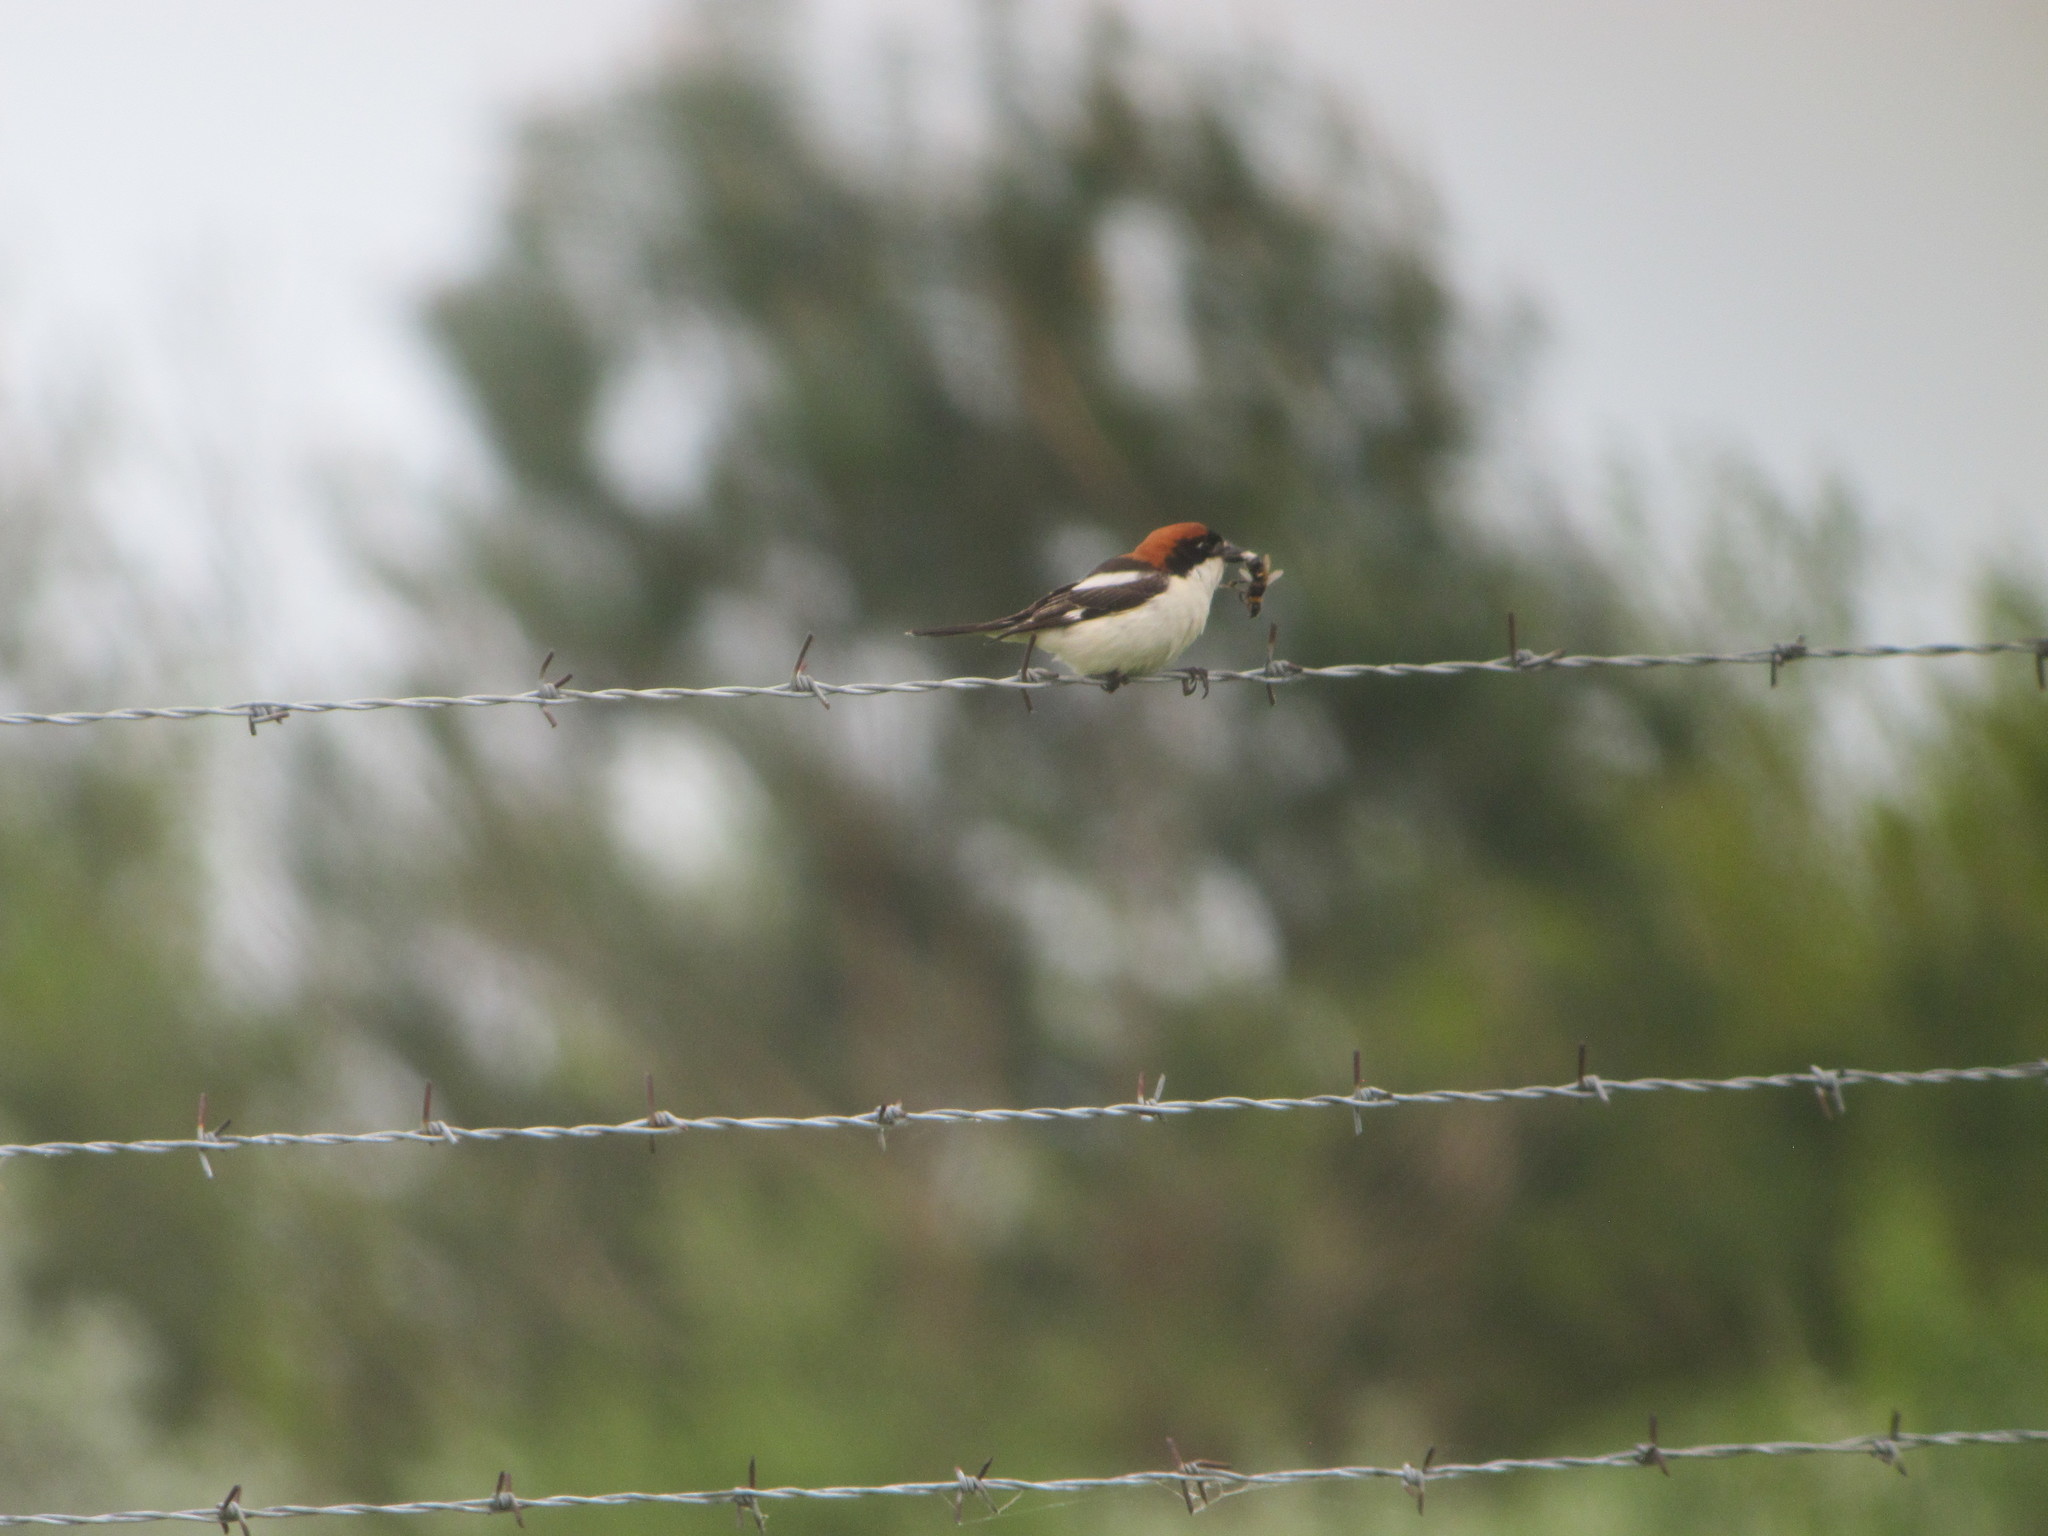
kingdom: Animalia
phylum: Chordata
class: Aves
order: Passeriformes
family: Laniidae
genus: Lanius
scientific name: Lanius senator
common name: Woodchat shrike
